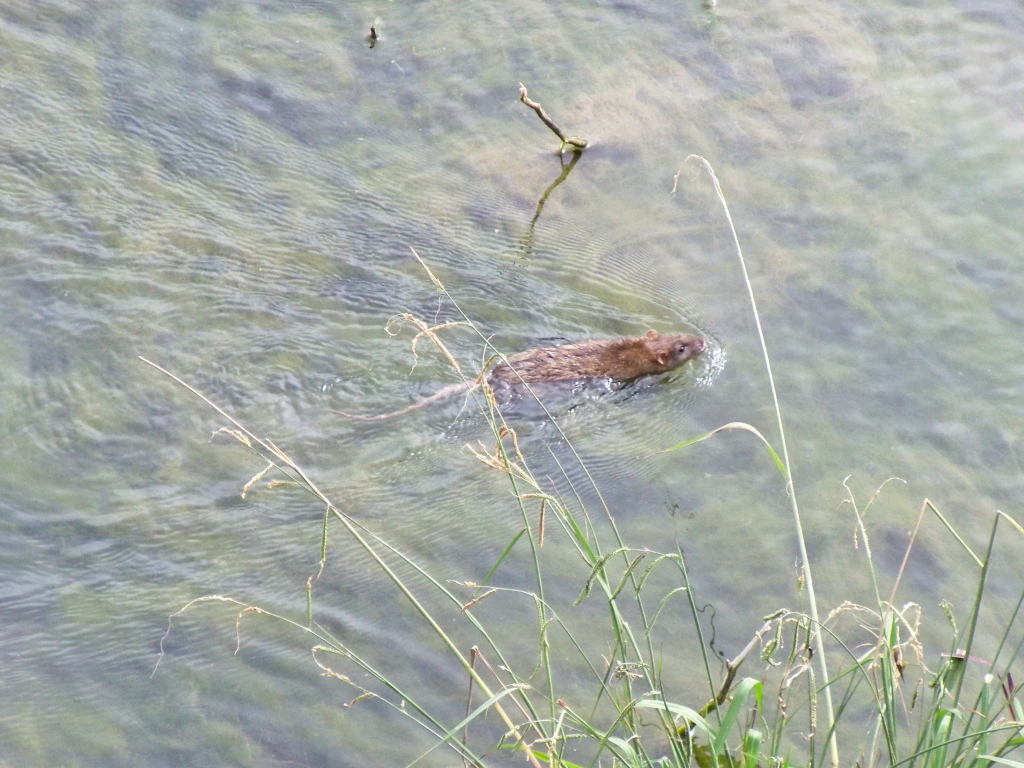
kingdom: Animalia
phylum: Chordata
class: Mammalia
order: Rodentia
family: Muridae
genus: Rattus
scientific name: Rattus norvegicus
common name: Brown rat
